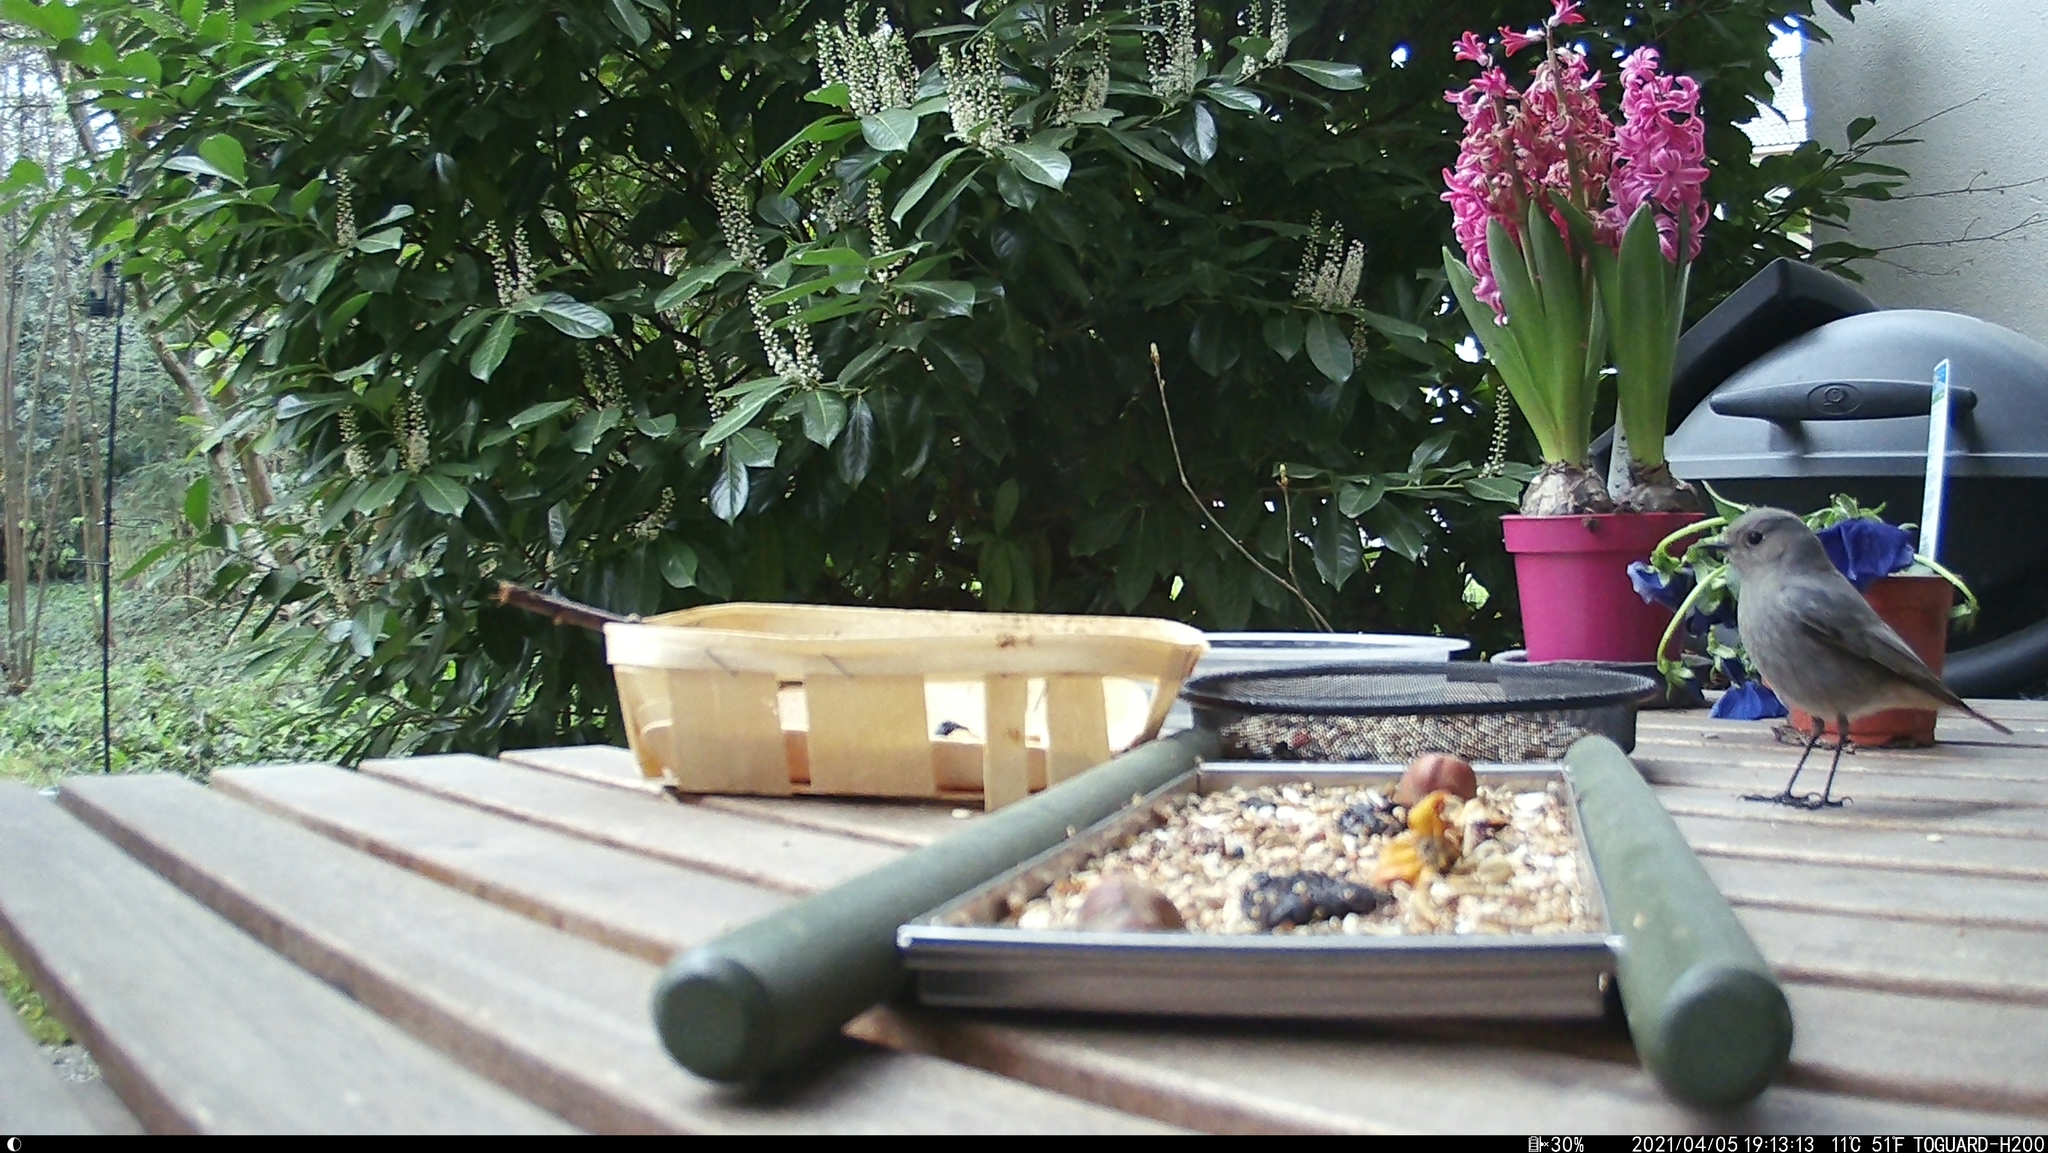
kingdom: Animalia
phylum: Chordata
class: Aves
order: Passeriformes
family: Muscicapidae
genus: Phoenicurus
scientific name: Phoenicurus ochruros
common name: Black redstart
